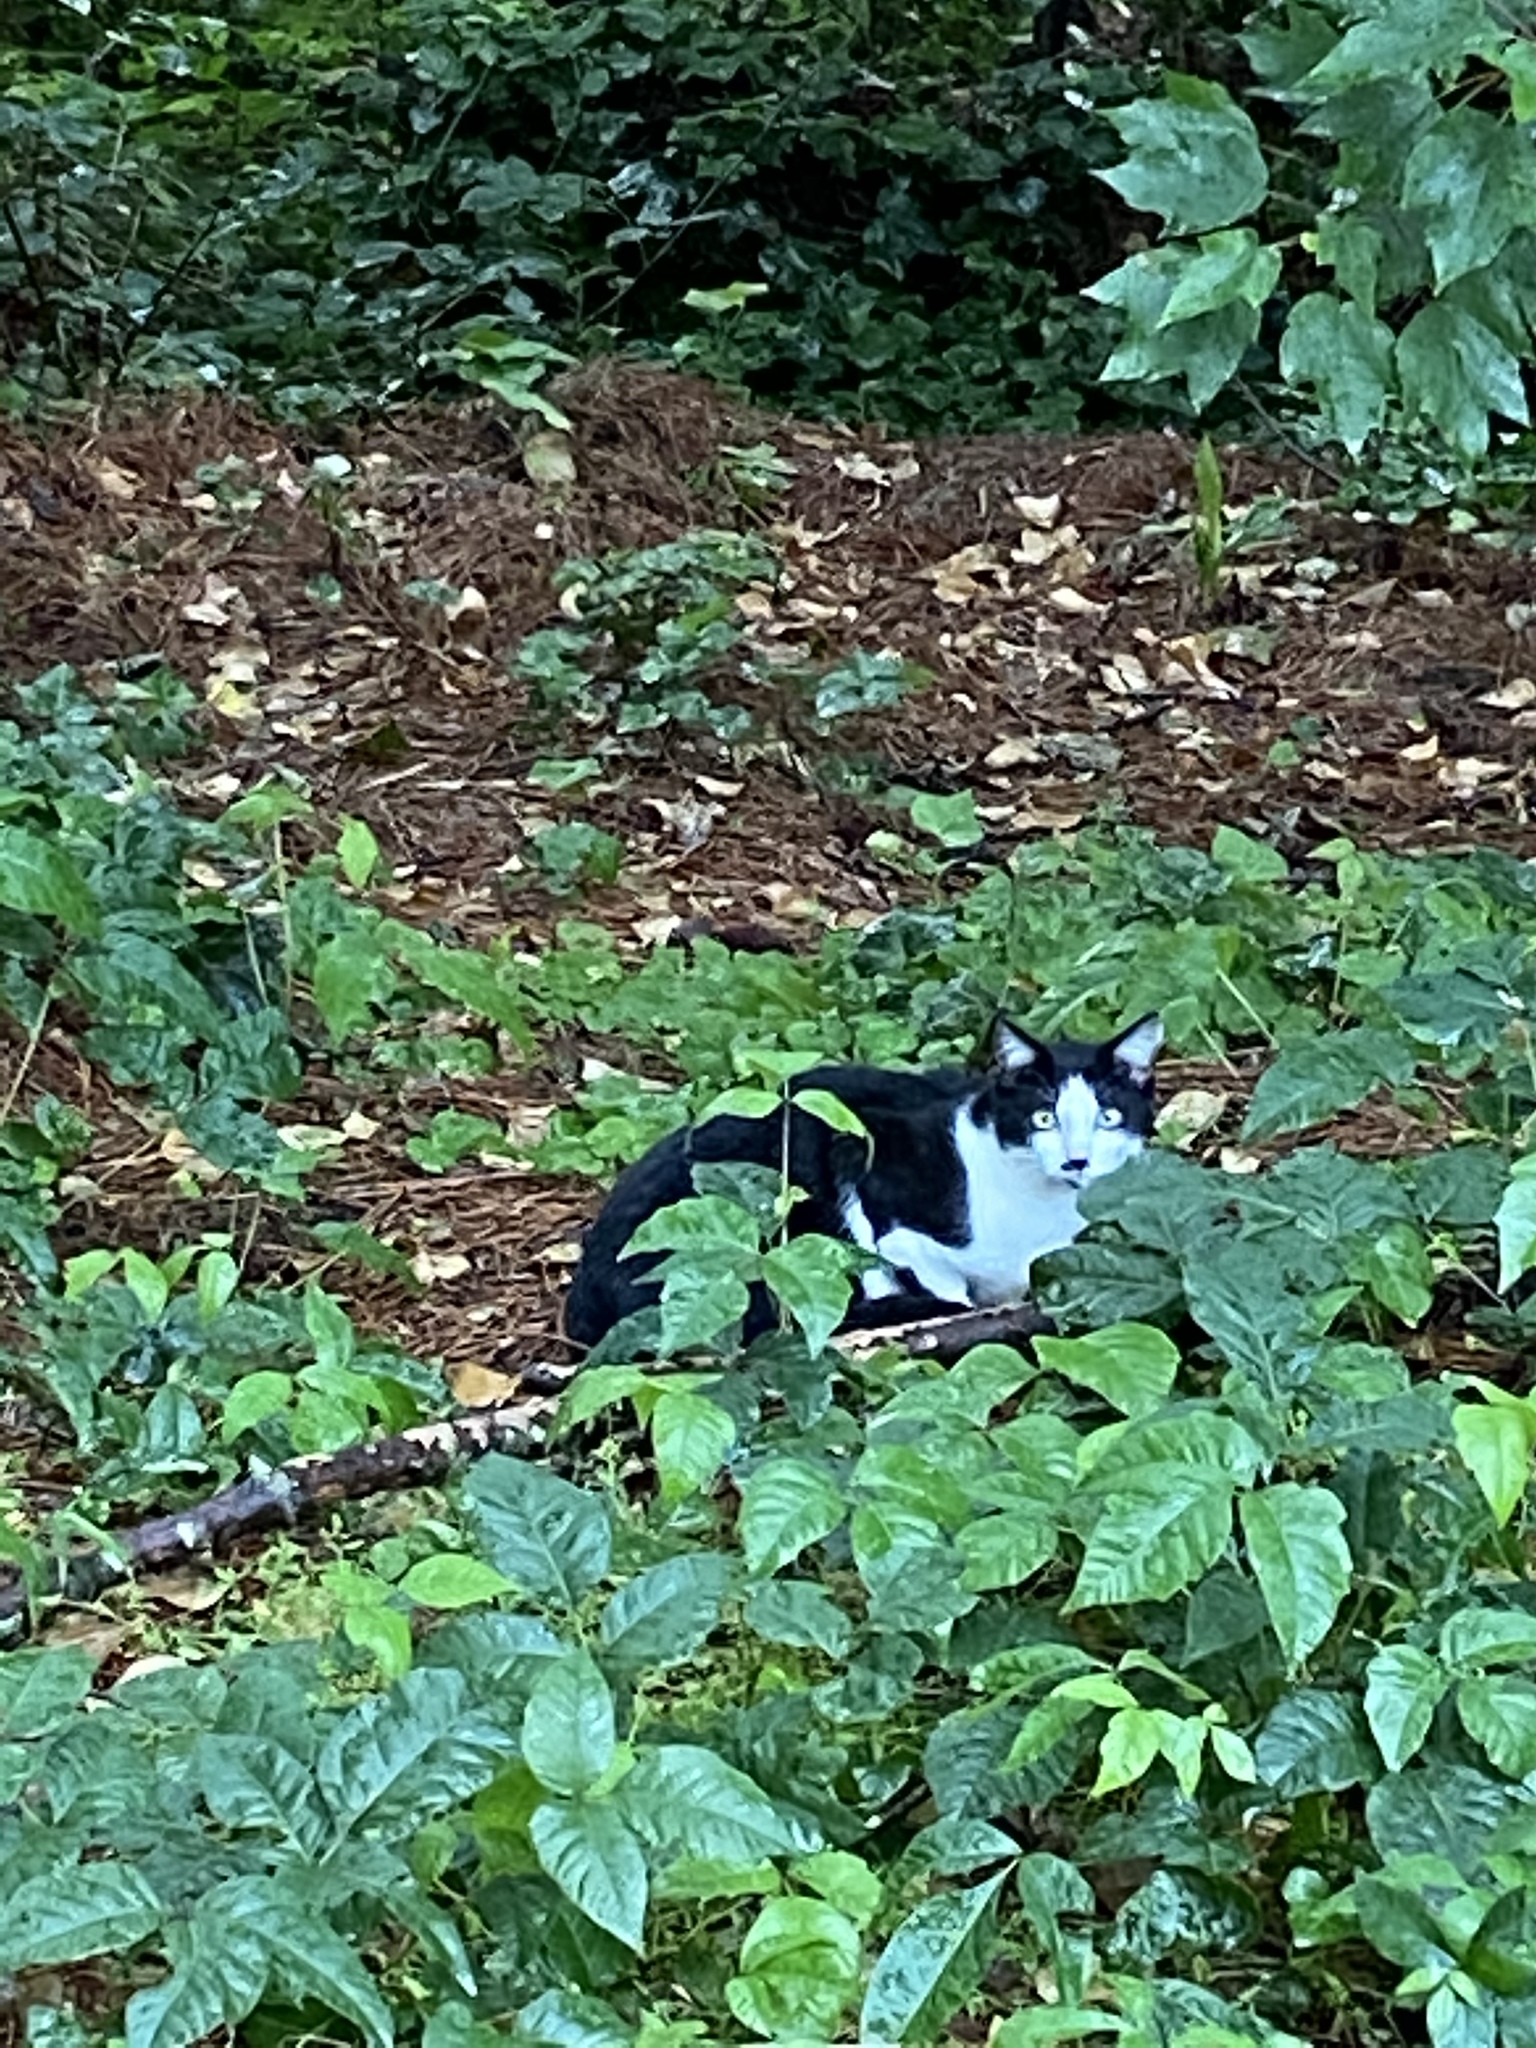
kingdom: Animalia
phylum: Chordata
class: Mammalia
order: Carnivora
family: Felidae
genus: Felis
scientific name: Felis catus
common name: Domestic cat
